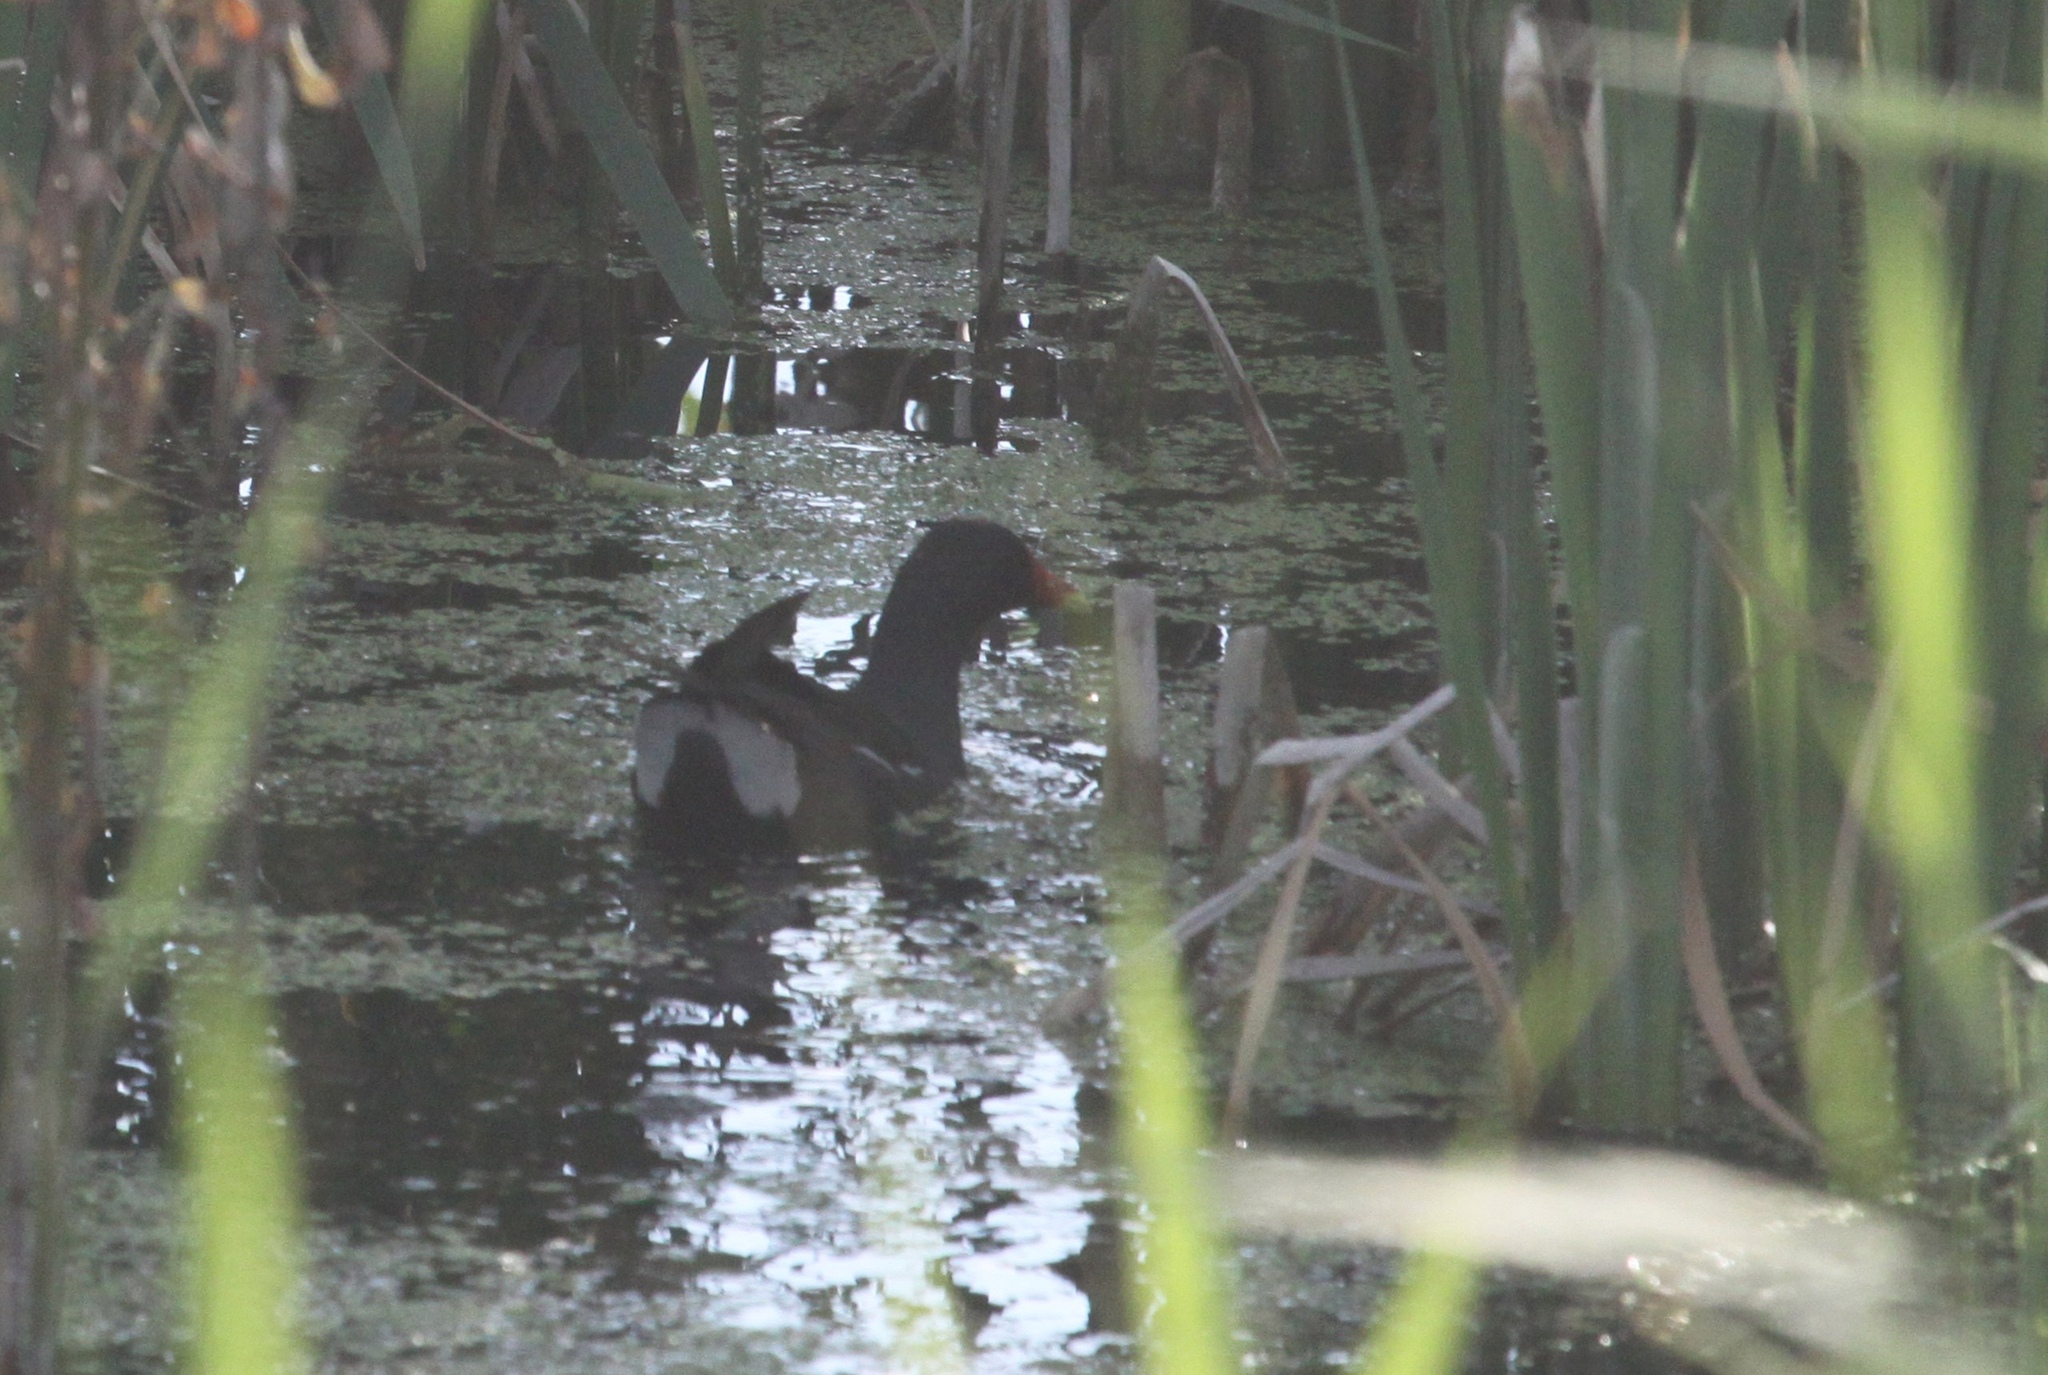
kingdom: Animalia
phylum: Chordata
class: Aves
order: Gruiformes
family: Rallidae
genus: Gallinula
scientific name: Gallinula chloropus
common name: Common moorhen
